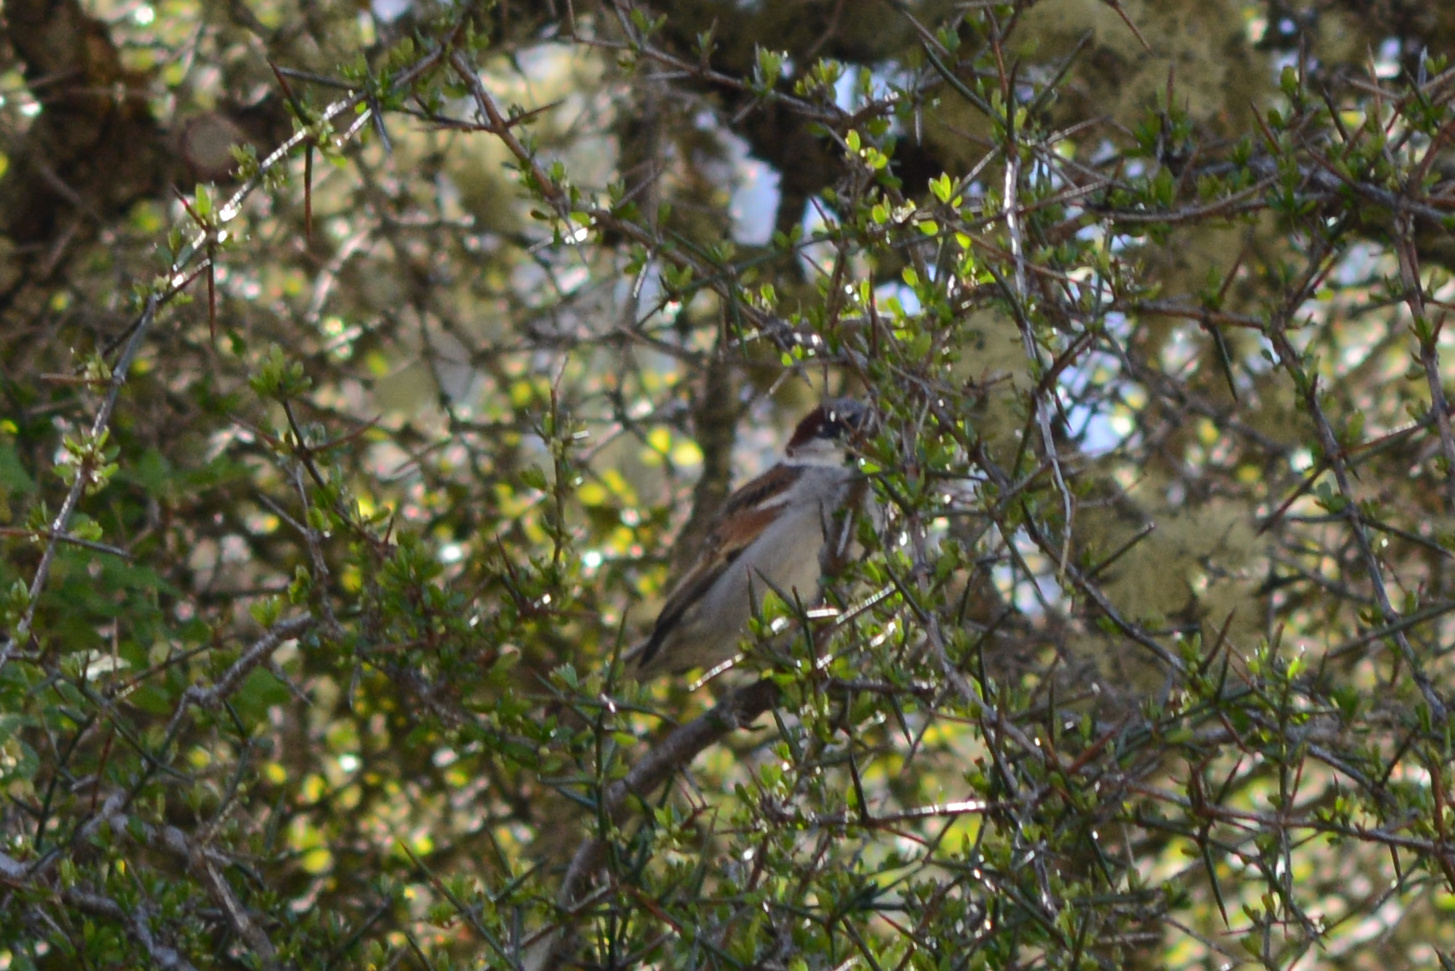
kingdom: Animalia
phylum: Chordata
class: Aves
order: Passeriformes
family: Passeridae
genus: Passer
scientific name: Passer domesticus
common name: House sparrow
